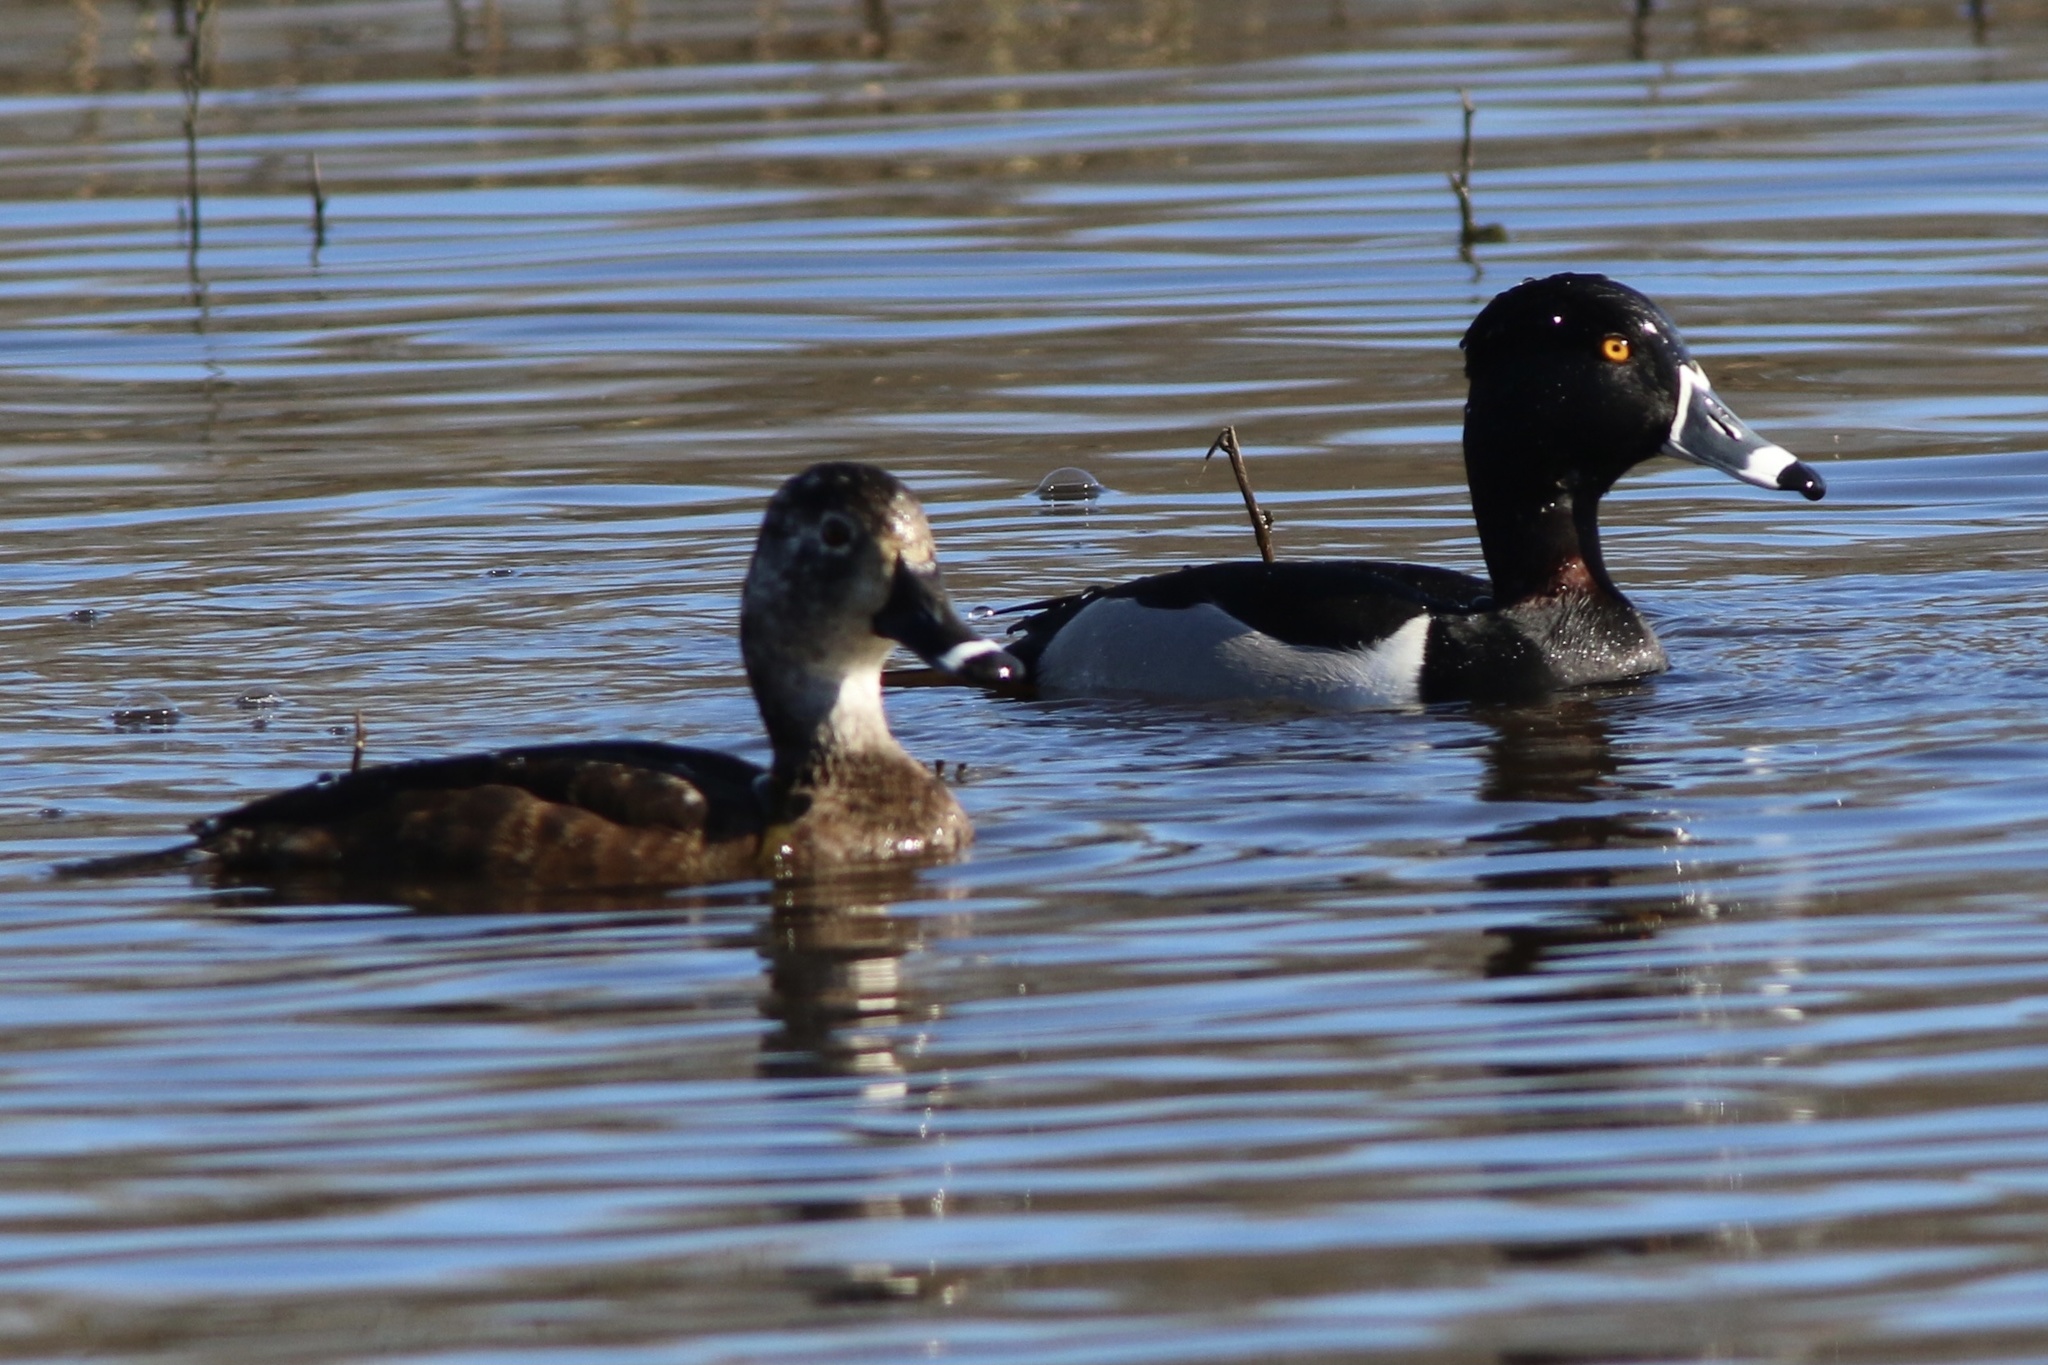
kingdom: Animalia
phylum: Chordata
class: Aves
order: Anseriformes
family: Anatidae
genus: Aythya
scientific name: Aythya collaris
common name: Ring-necked duck
